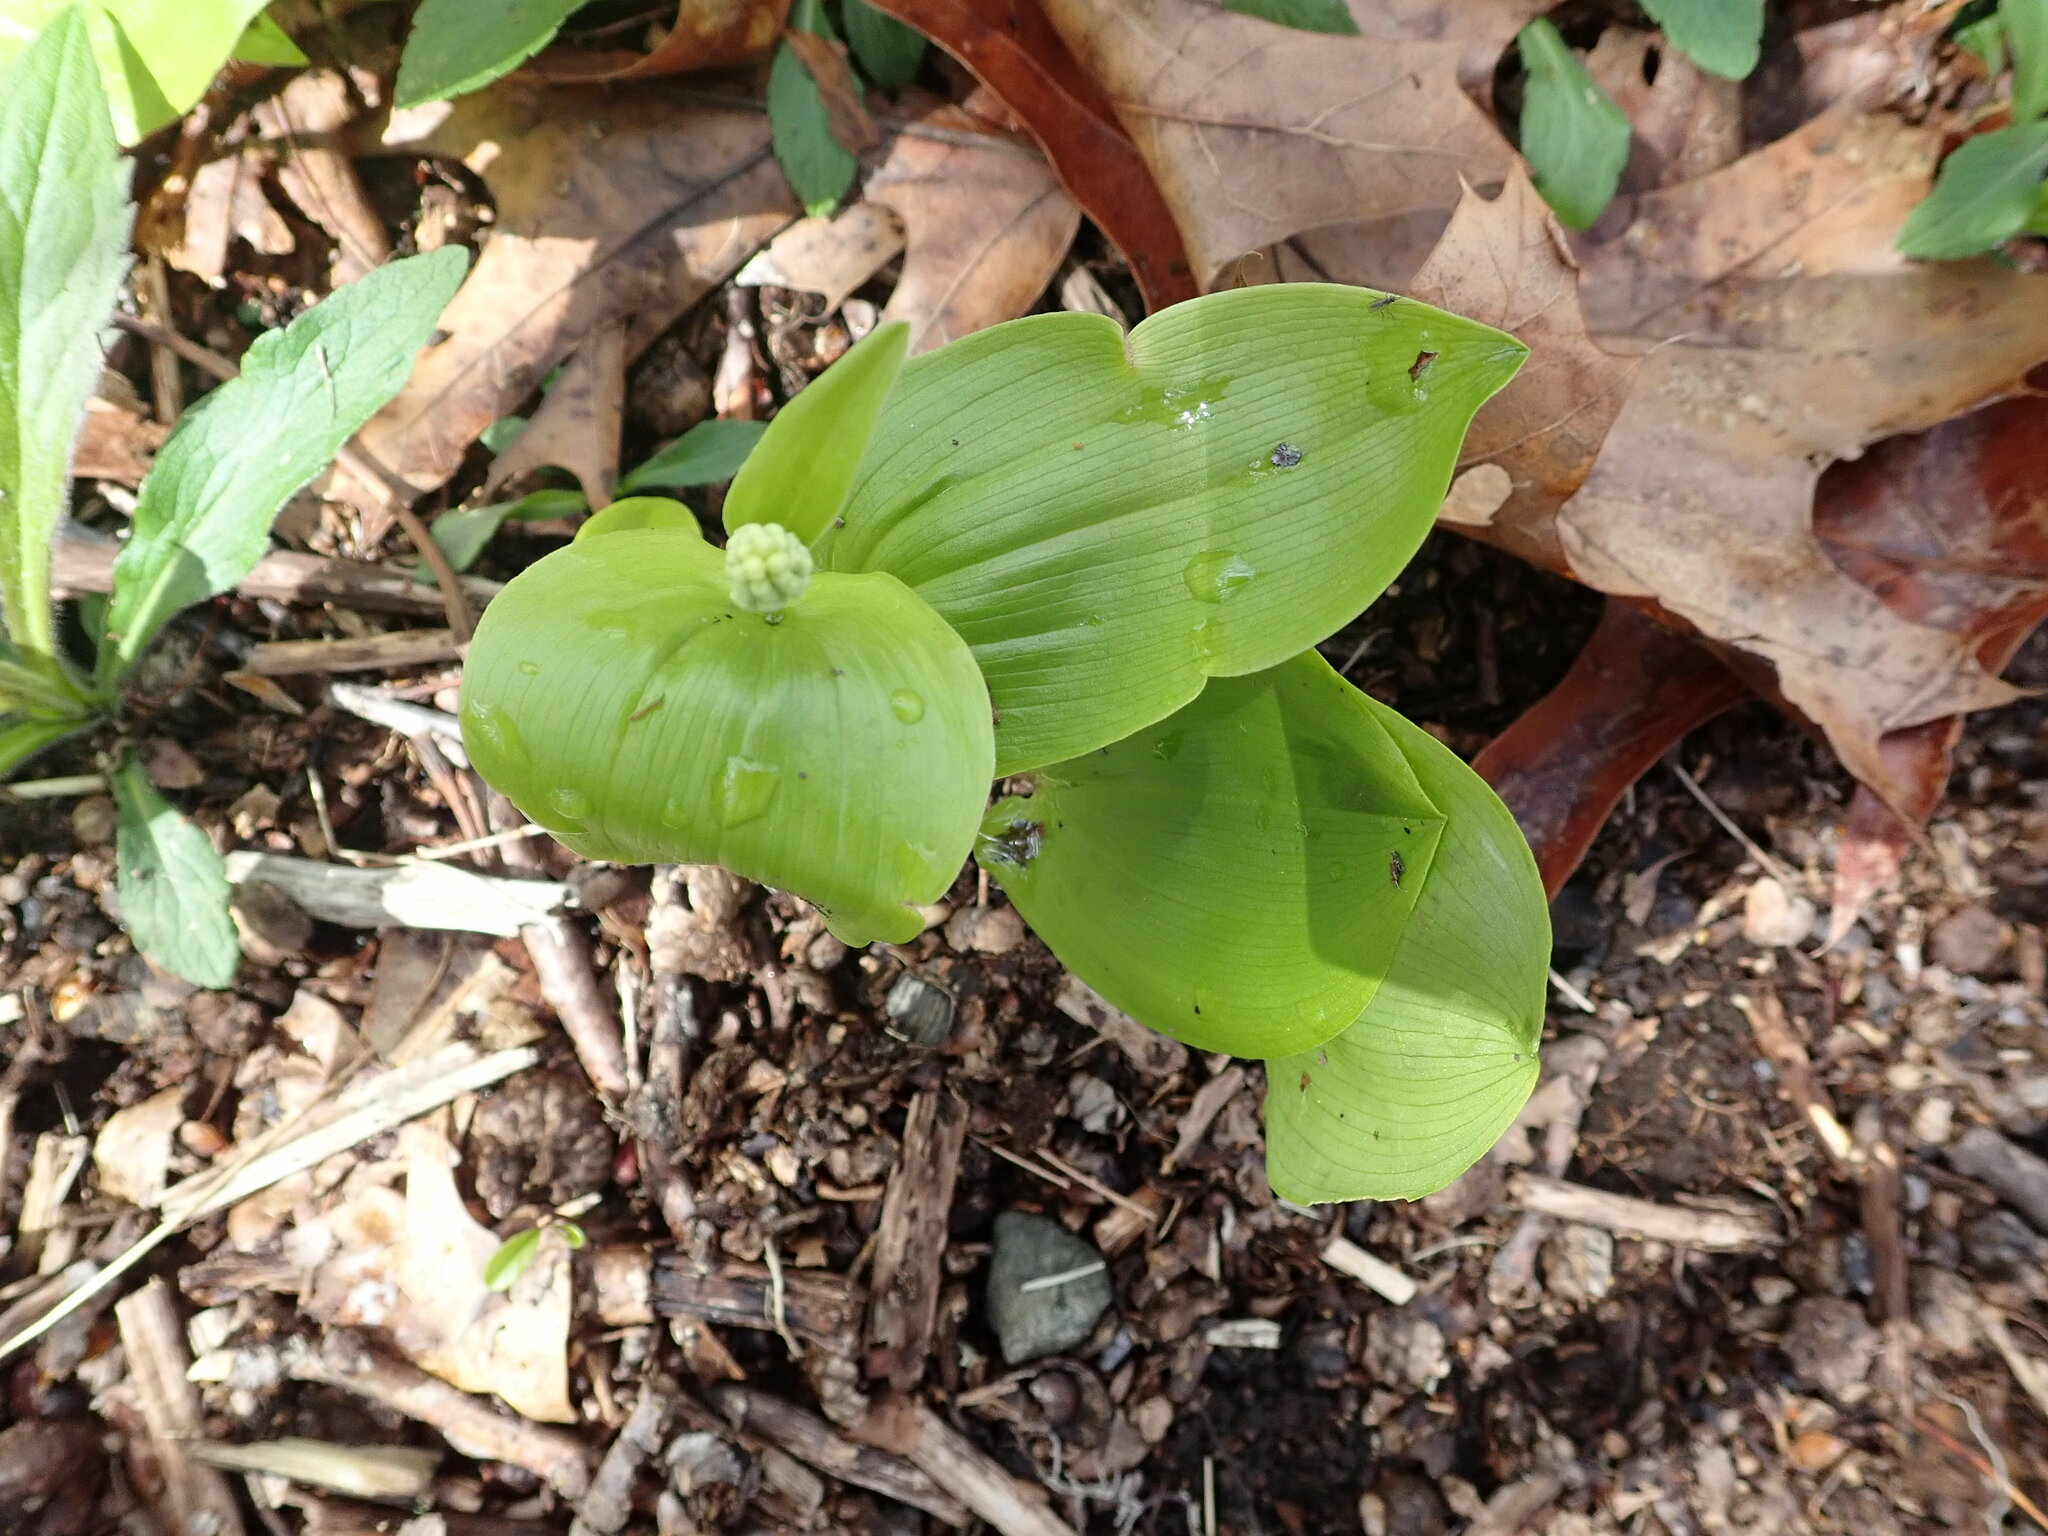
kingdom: Plantae
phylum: Tracheophyta
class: Liliopsida
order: Asparagales
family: Asparagaceae
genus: Maianthemum
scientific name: Maianthemum canadense
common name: False lily-of-the-valley
